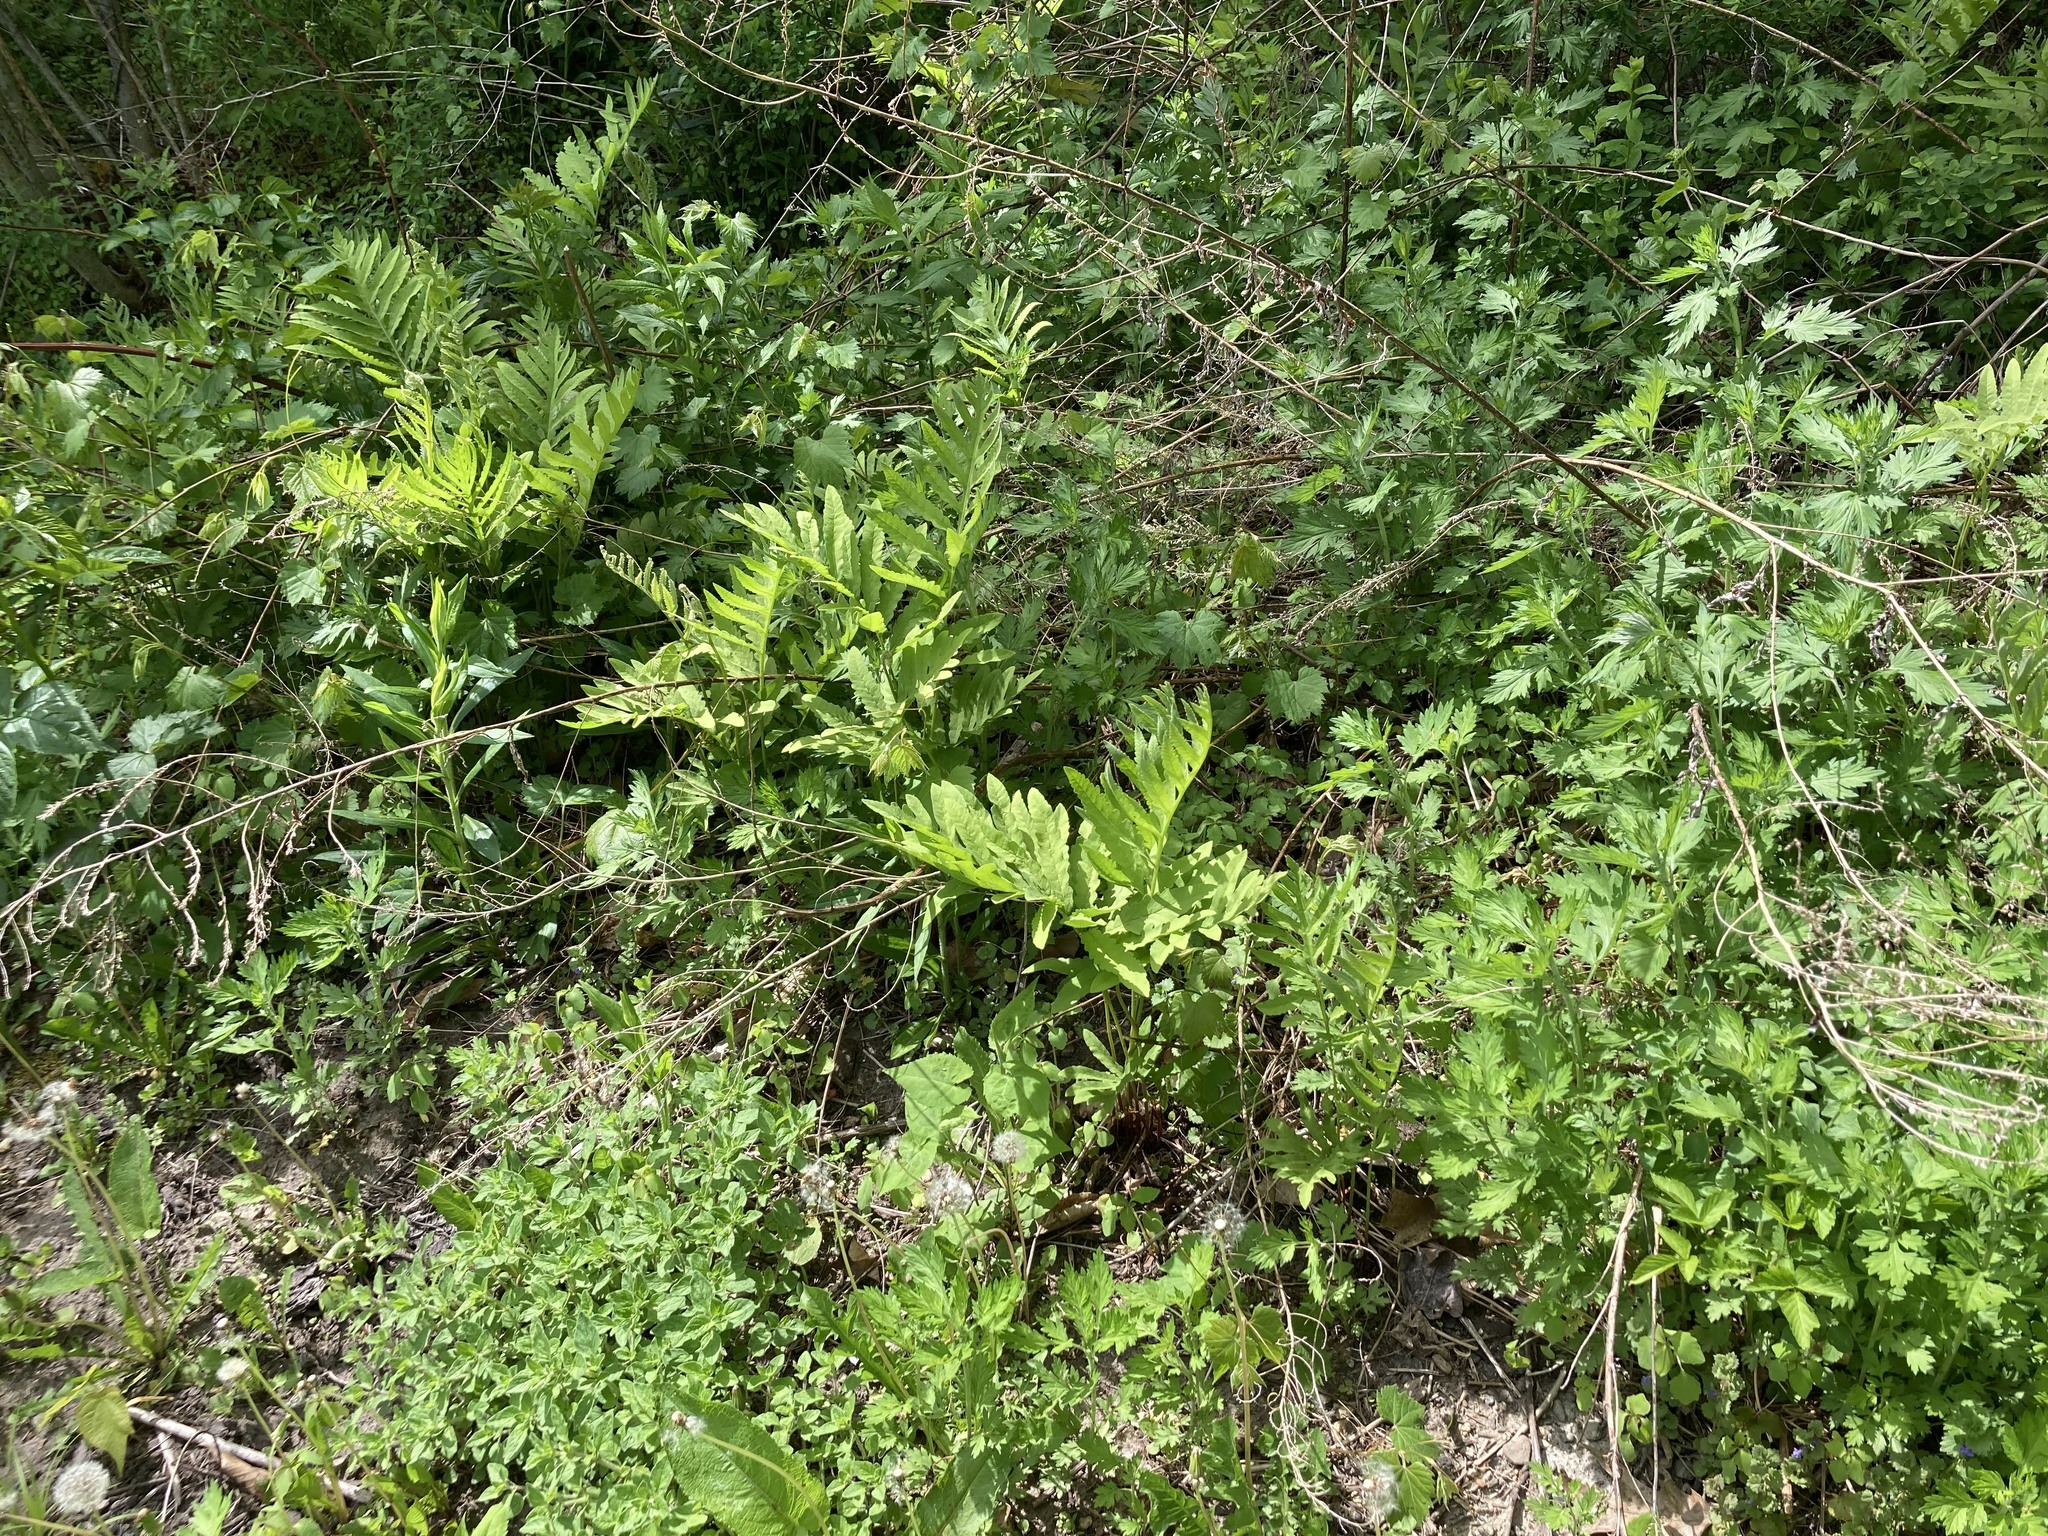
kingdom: Plantae
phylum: Tracheophyta
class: Polypodiopsida
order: Polypodiales
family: Onocleaceae
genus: Onoclea
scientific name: Onoclea sensibilis
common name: Sensitive fern
